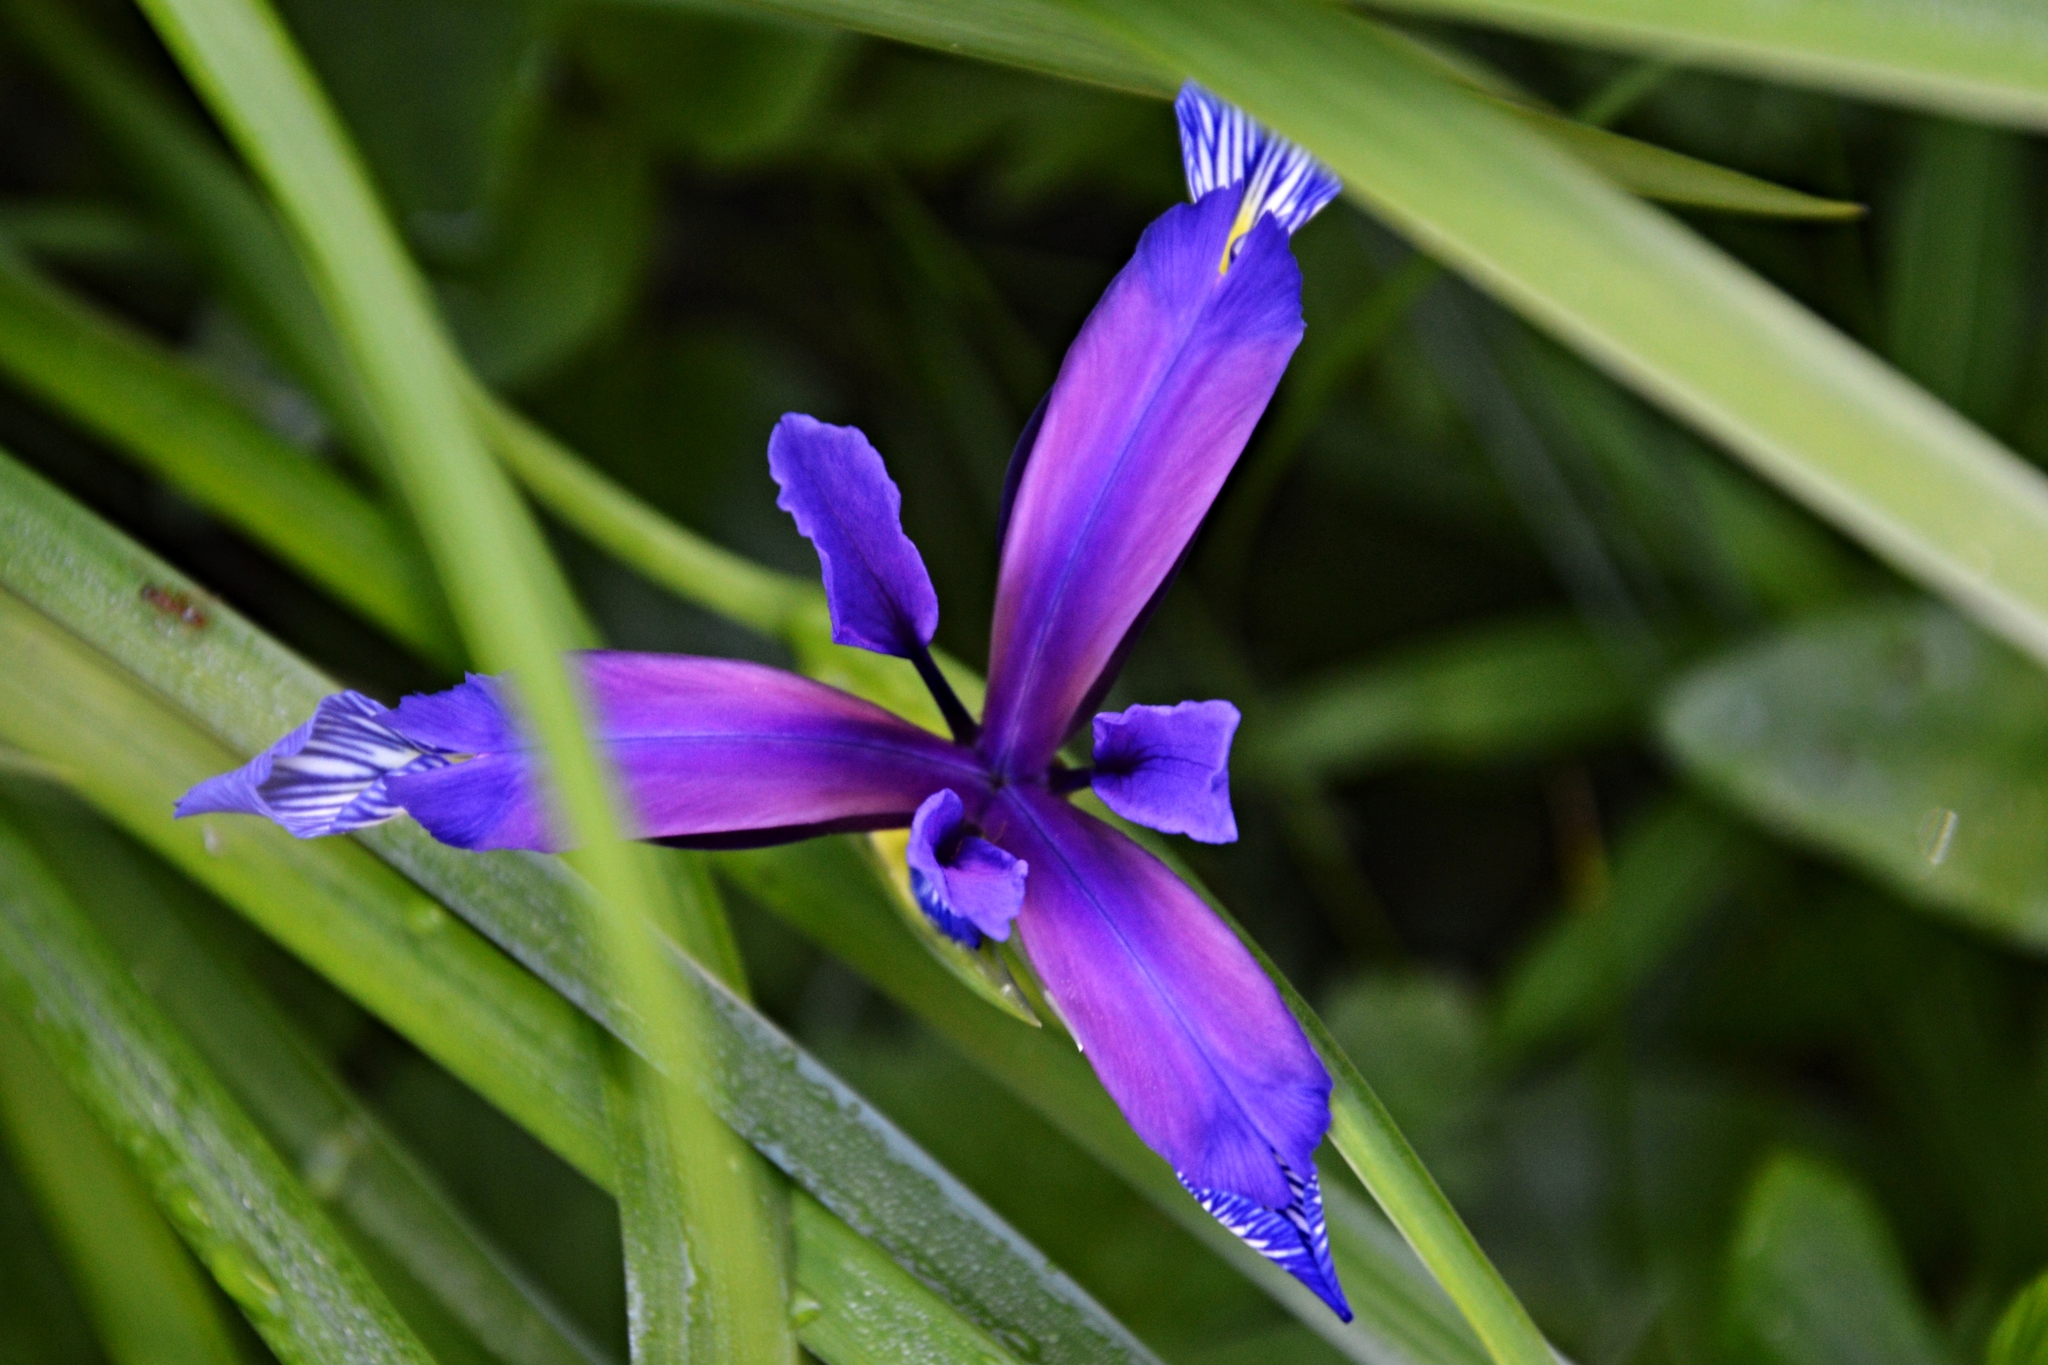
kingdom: Plantae
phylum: Tracheophyta
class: Liliopsida
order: Asparagales
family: Iridaceae
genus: Iris
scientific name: Iris graminea
